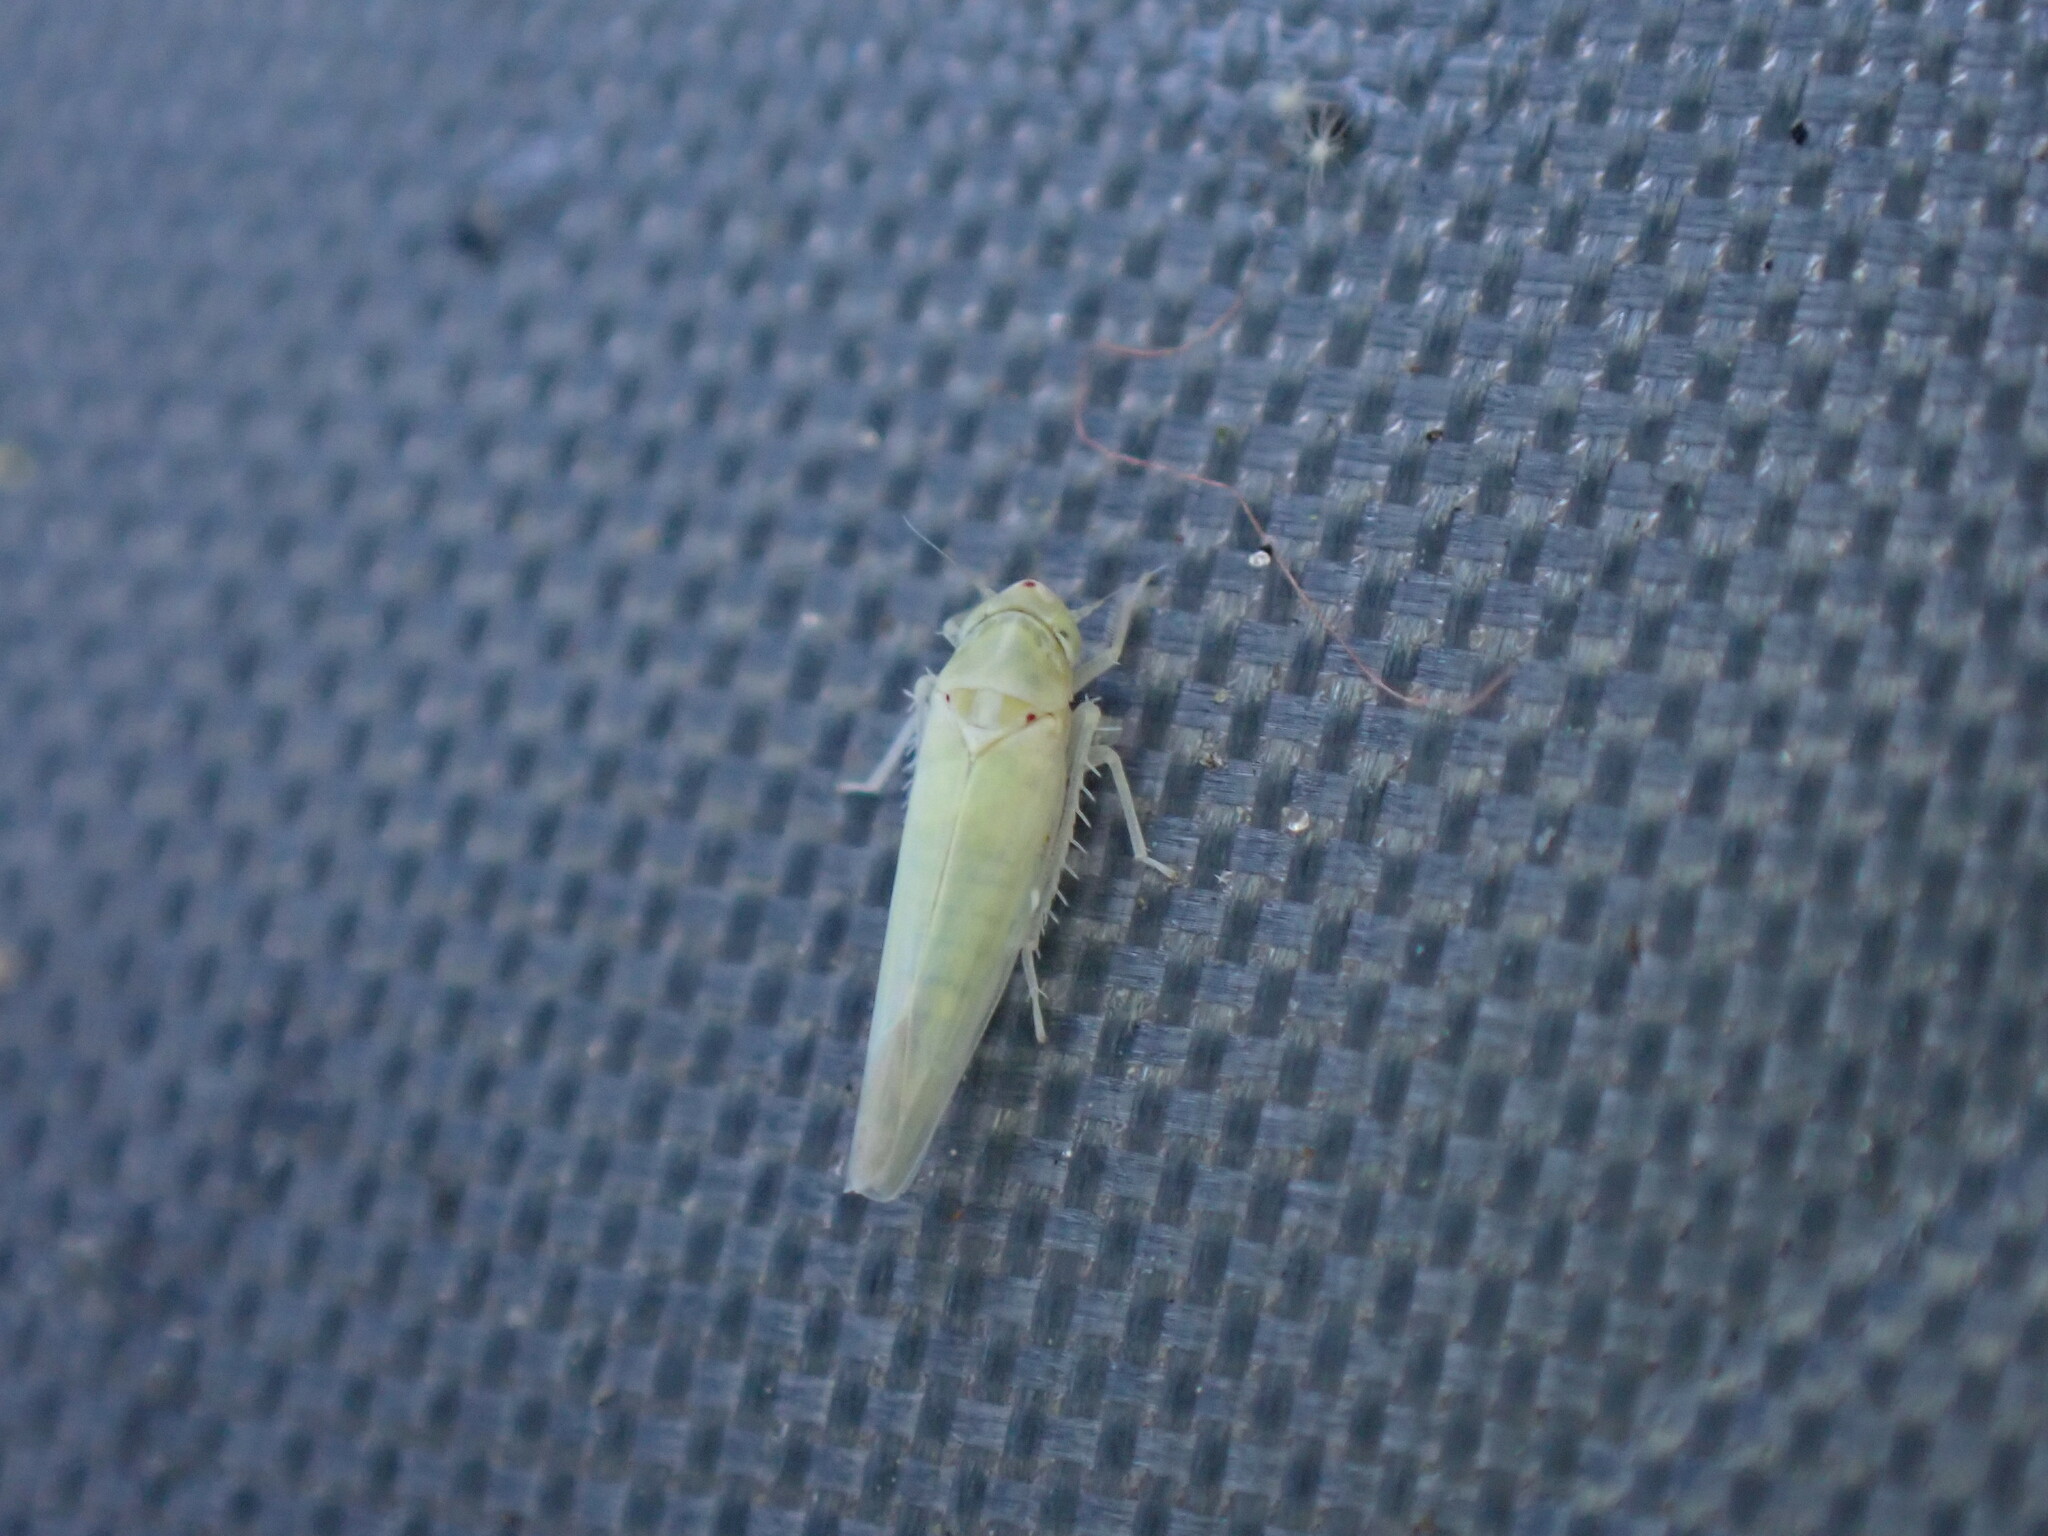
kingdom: Animalia
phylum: Arthropoda
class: Insecta
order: Hemiptera
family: Cicadellidae
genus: Zygina
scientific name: Zygina nivea
